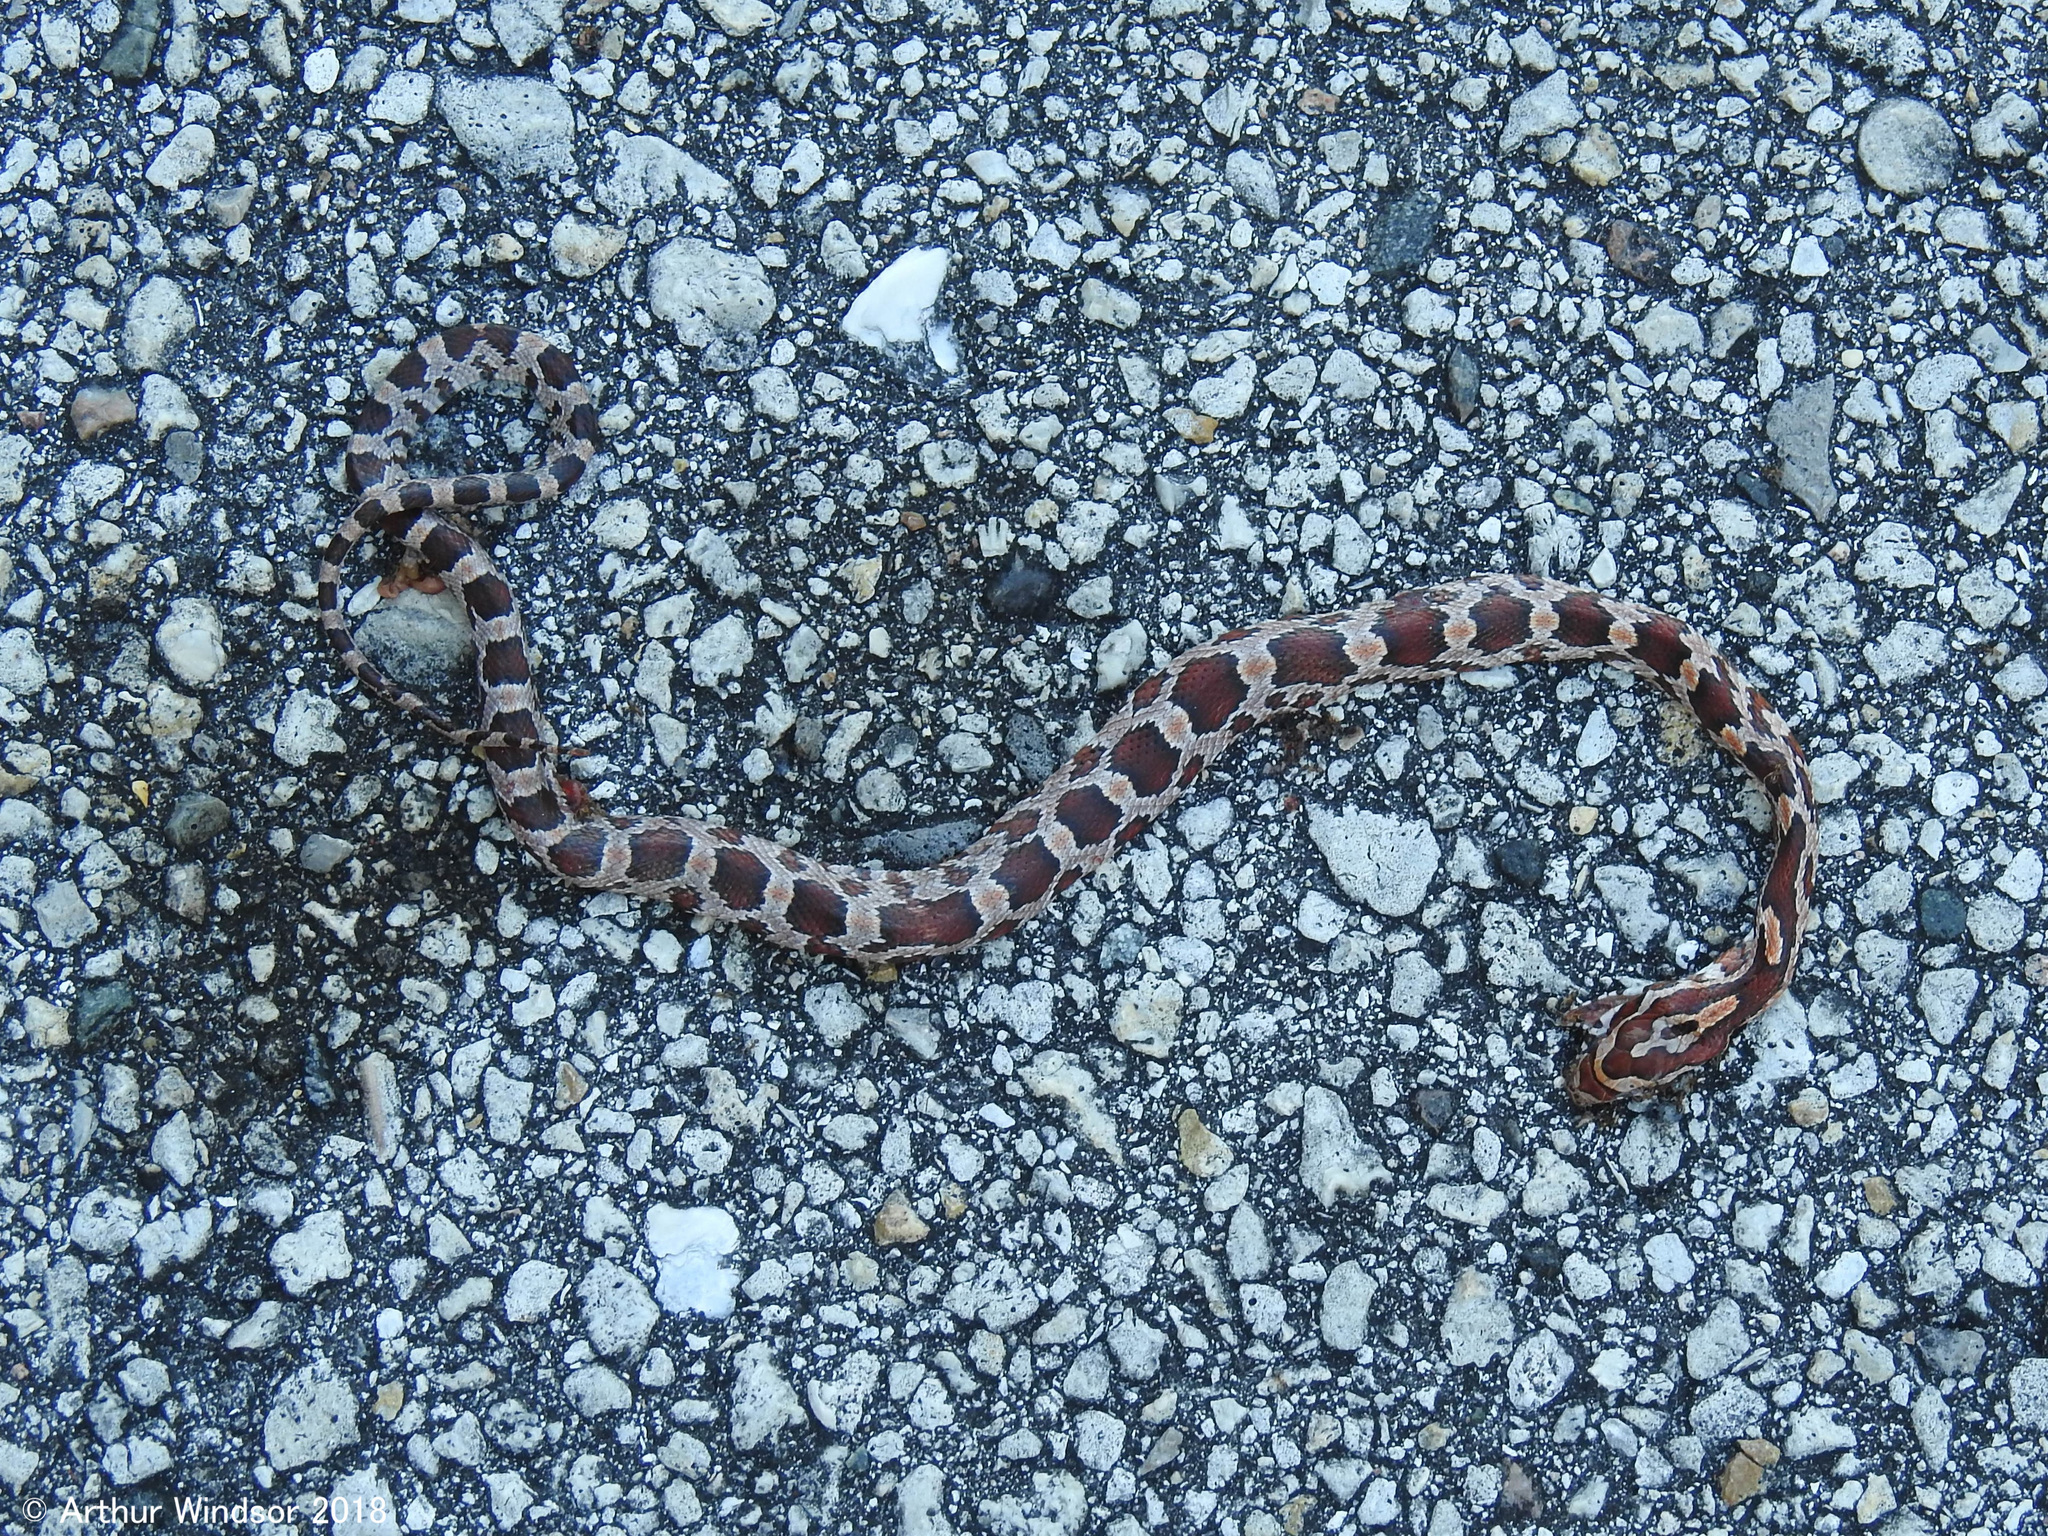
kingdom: Animalia
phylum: Chordata
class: Squamata
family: Colubridae
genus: Pantherophis
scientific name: Pantherophis guttatus
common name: Red cornsnake
